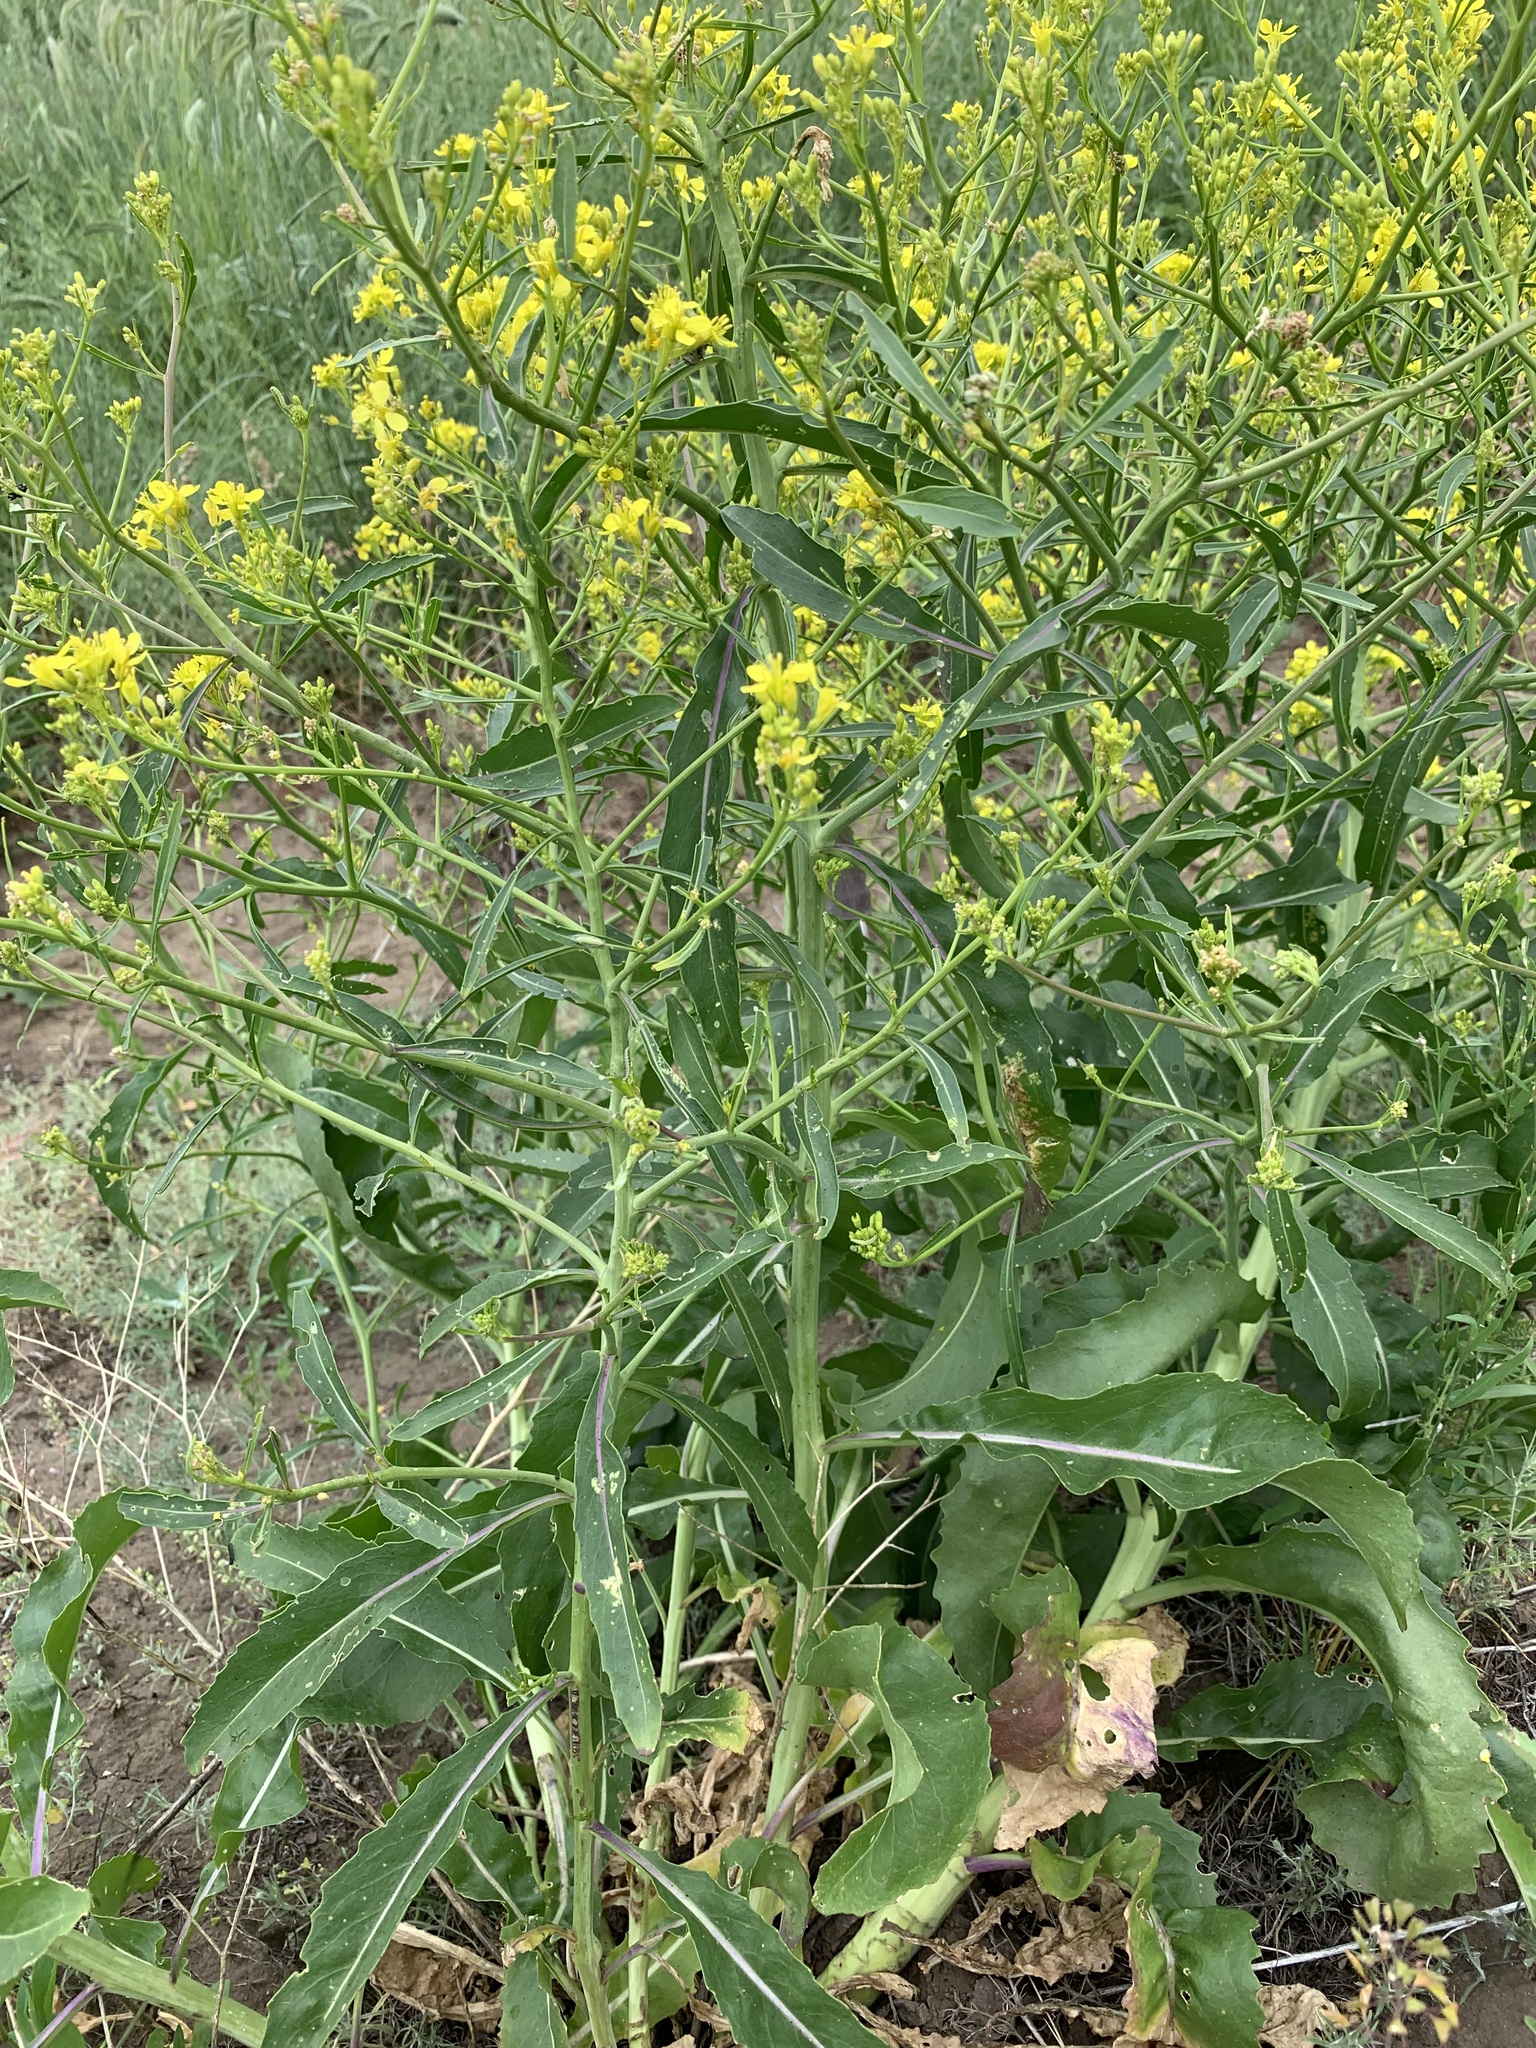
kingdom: Plantae
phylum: Tracheophyta
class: Magnoliopsida
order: Brassicales
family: Brassicaceae
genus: Brassica
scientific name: Brassica elongata
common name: Long-stalked rape
